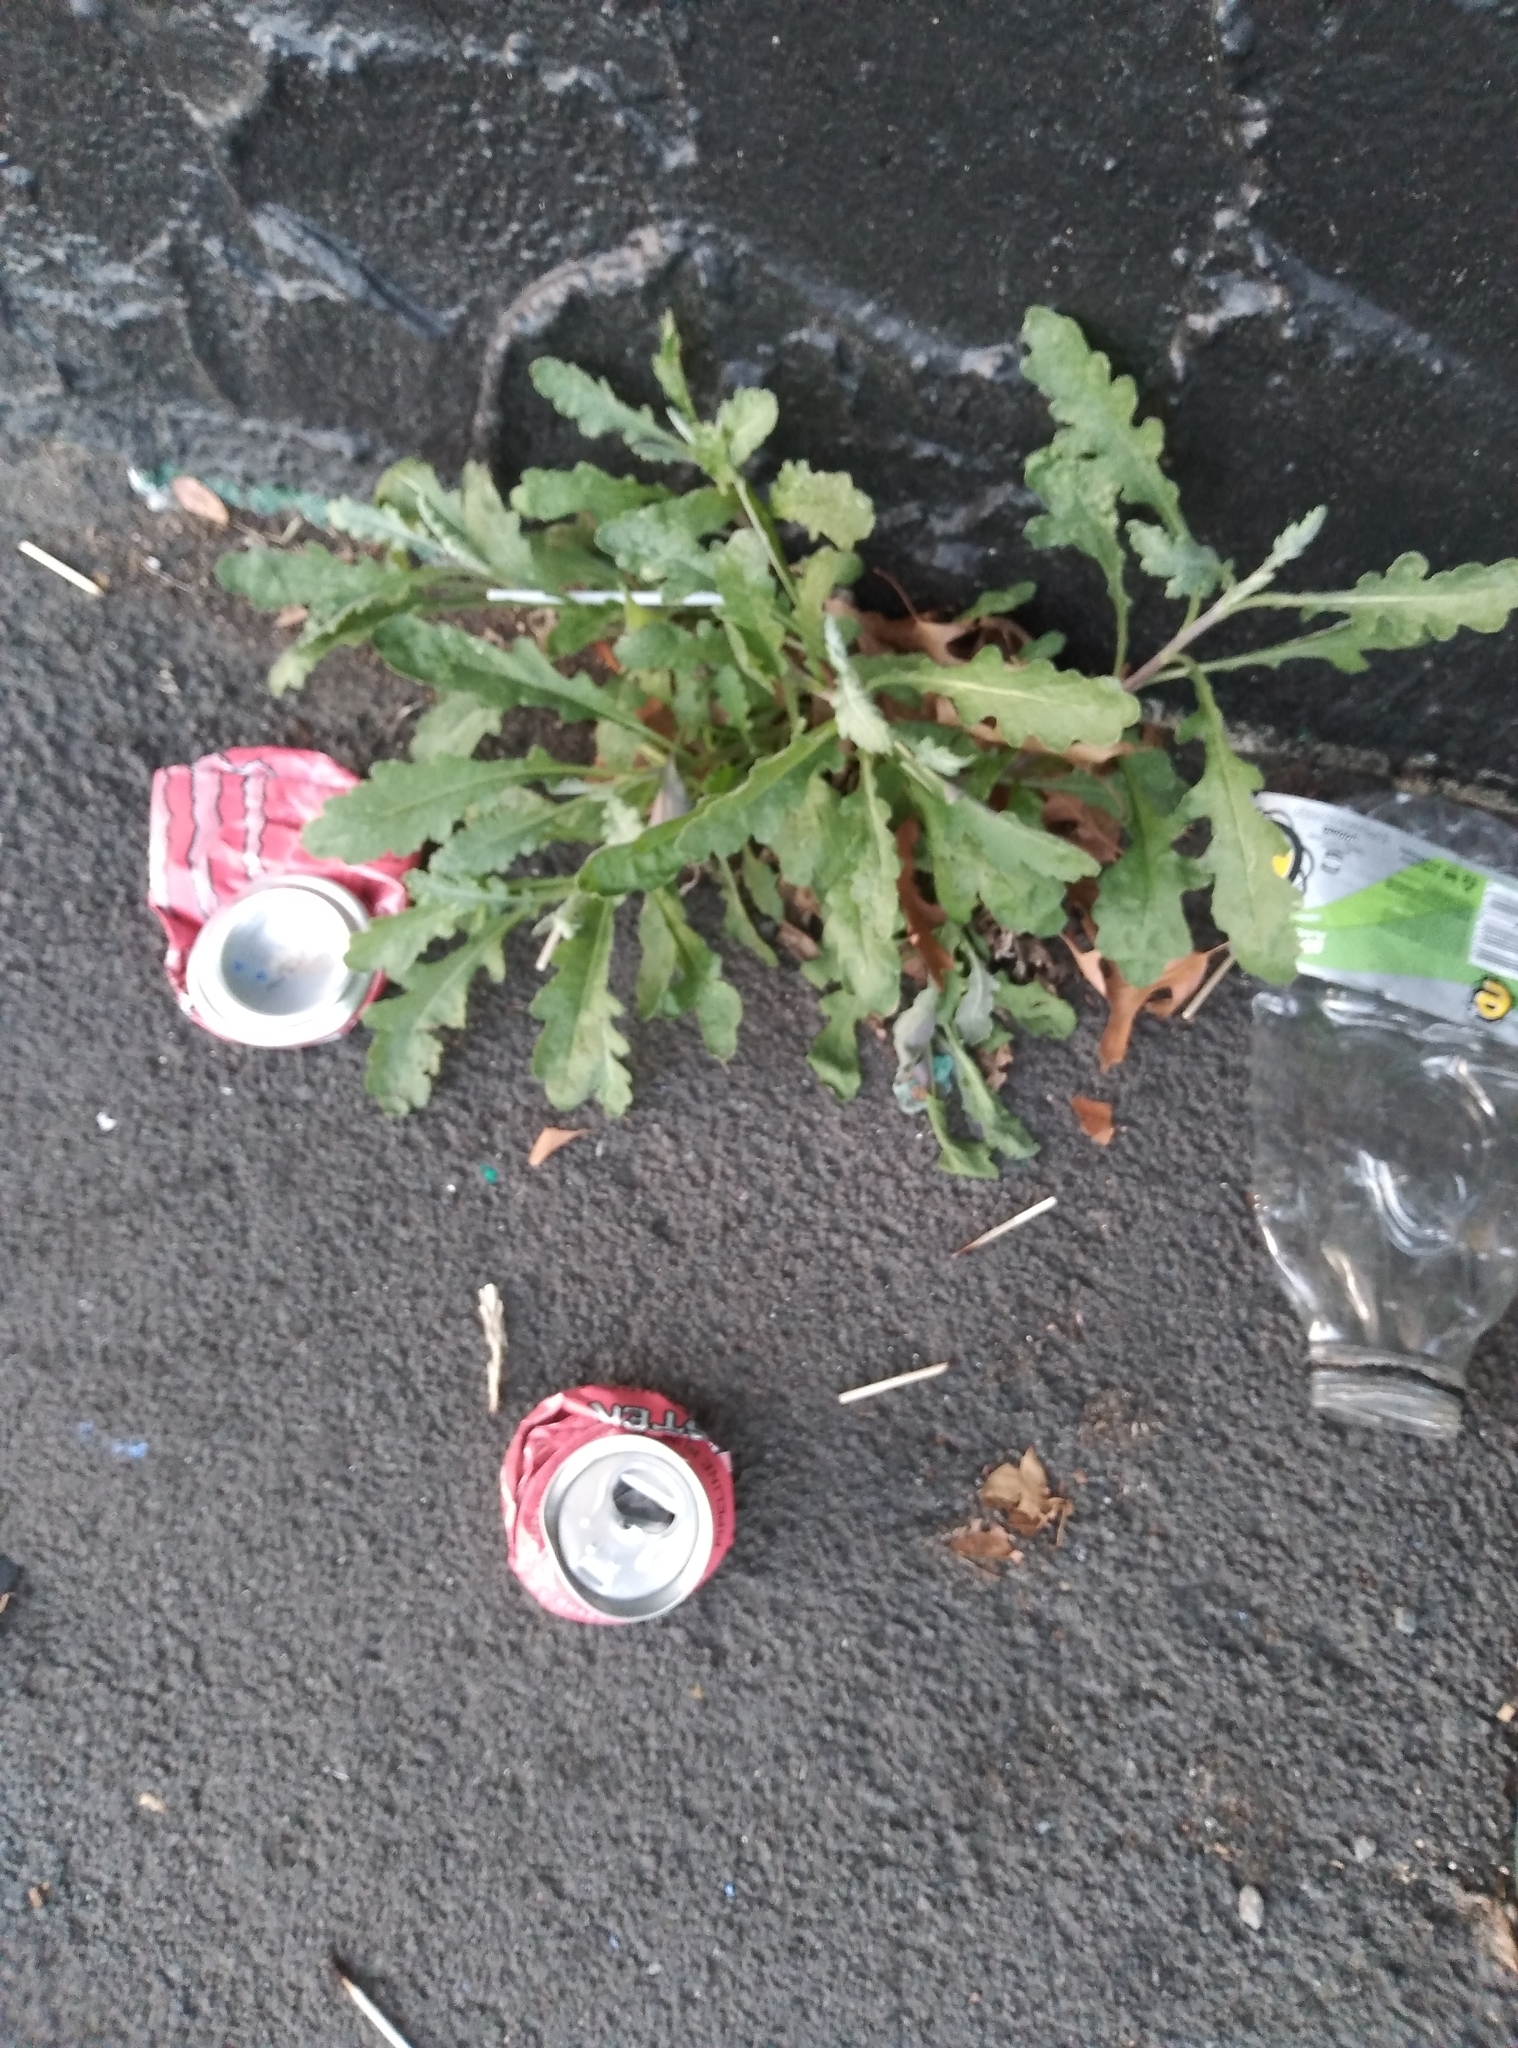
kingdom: Plantae
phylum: Tracheophyta
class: Magnoliopsida
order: Asterales
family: Asteraceae
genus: Senecio
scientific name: Senecio glomeratus
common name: Cutleaf burnweed
